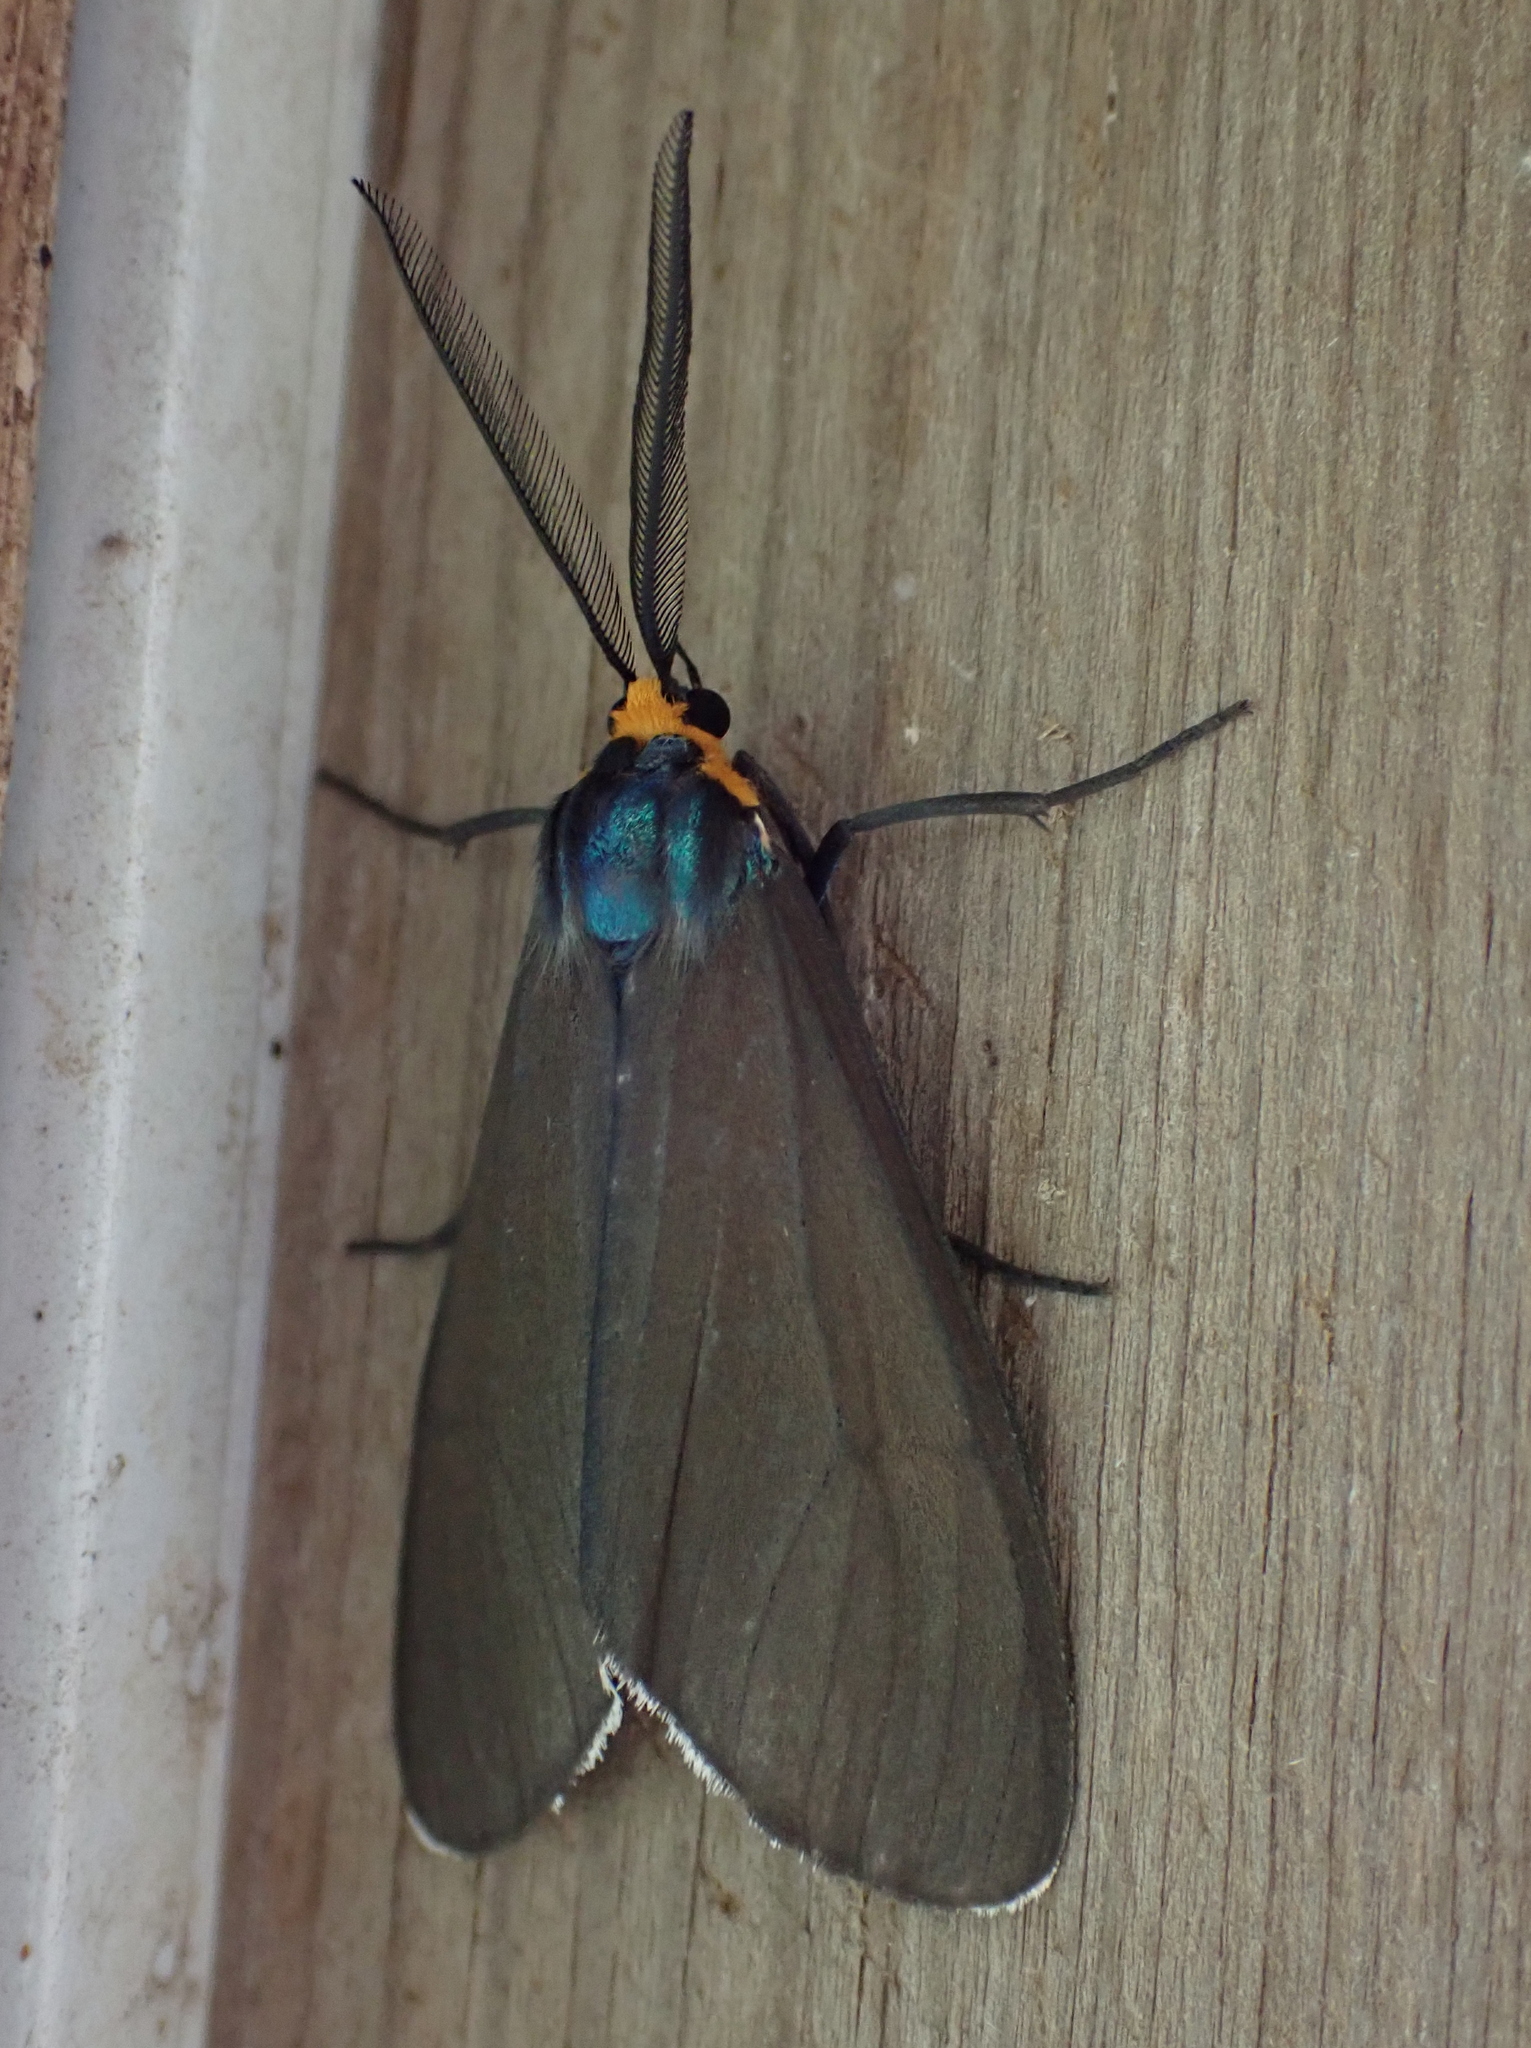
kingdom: Animalia
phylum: Arthropoda
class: Insecta
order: Lepidoptera
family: Erebidae
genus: Ctenucha
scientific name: Ctenucha virginica
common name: Virginia ctenucha moth
